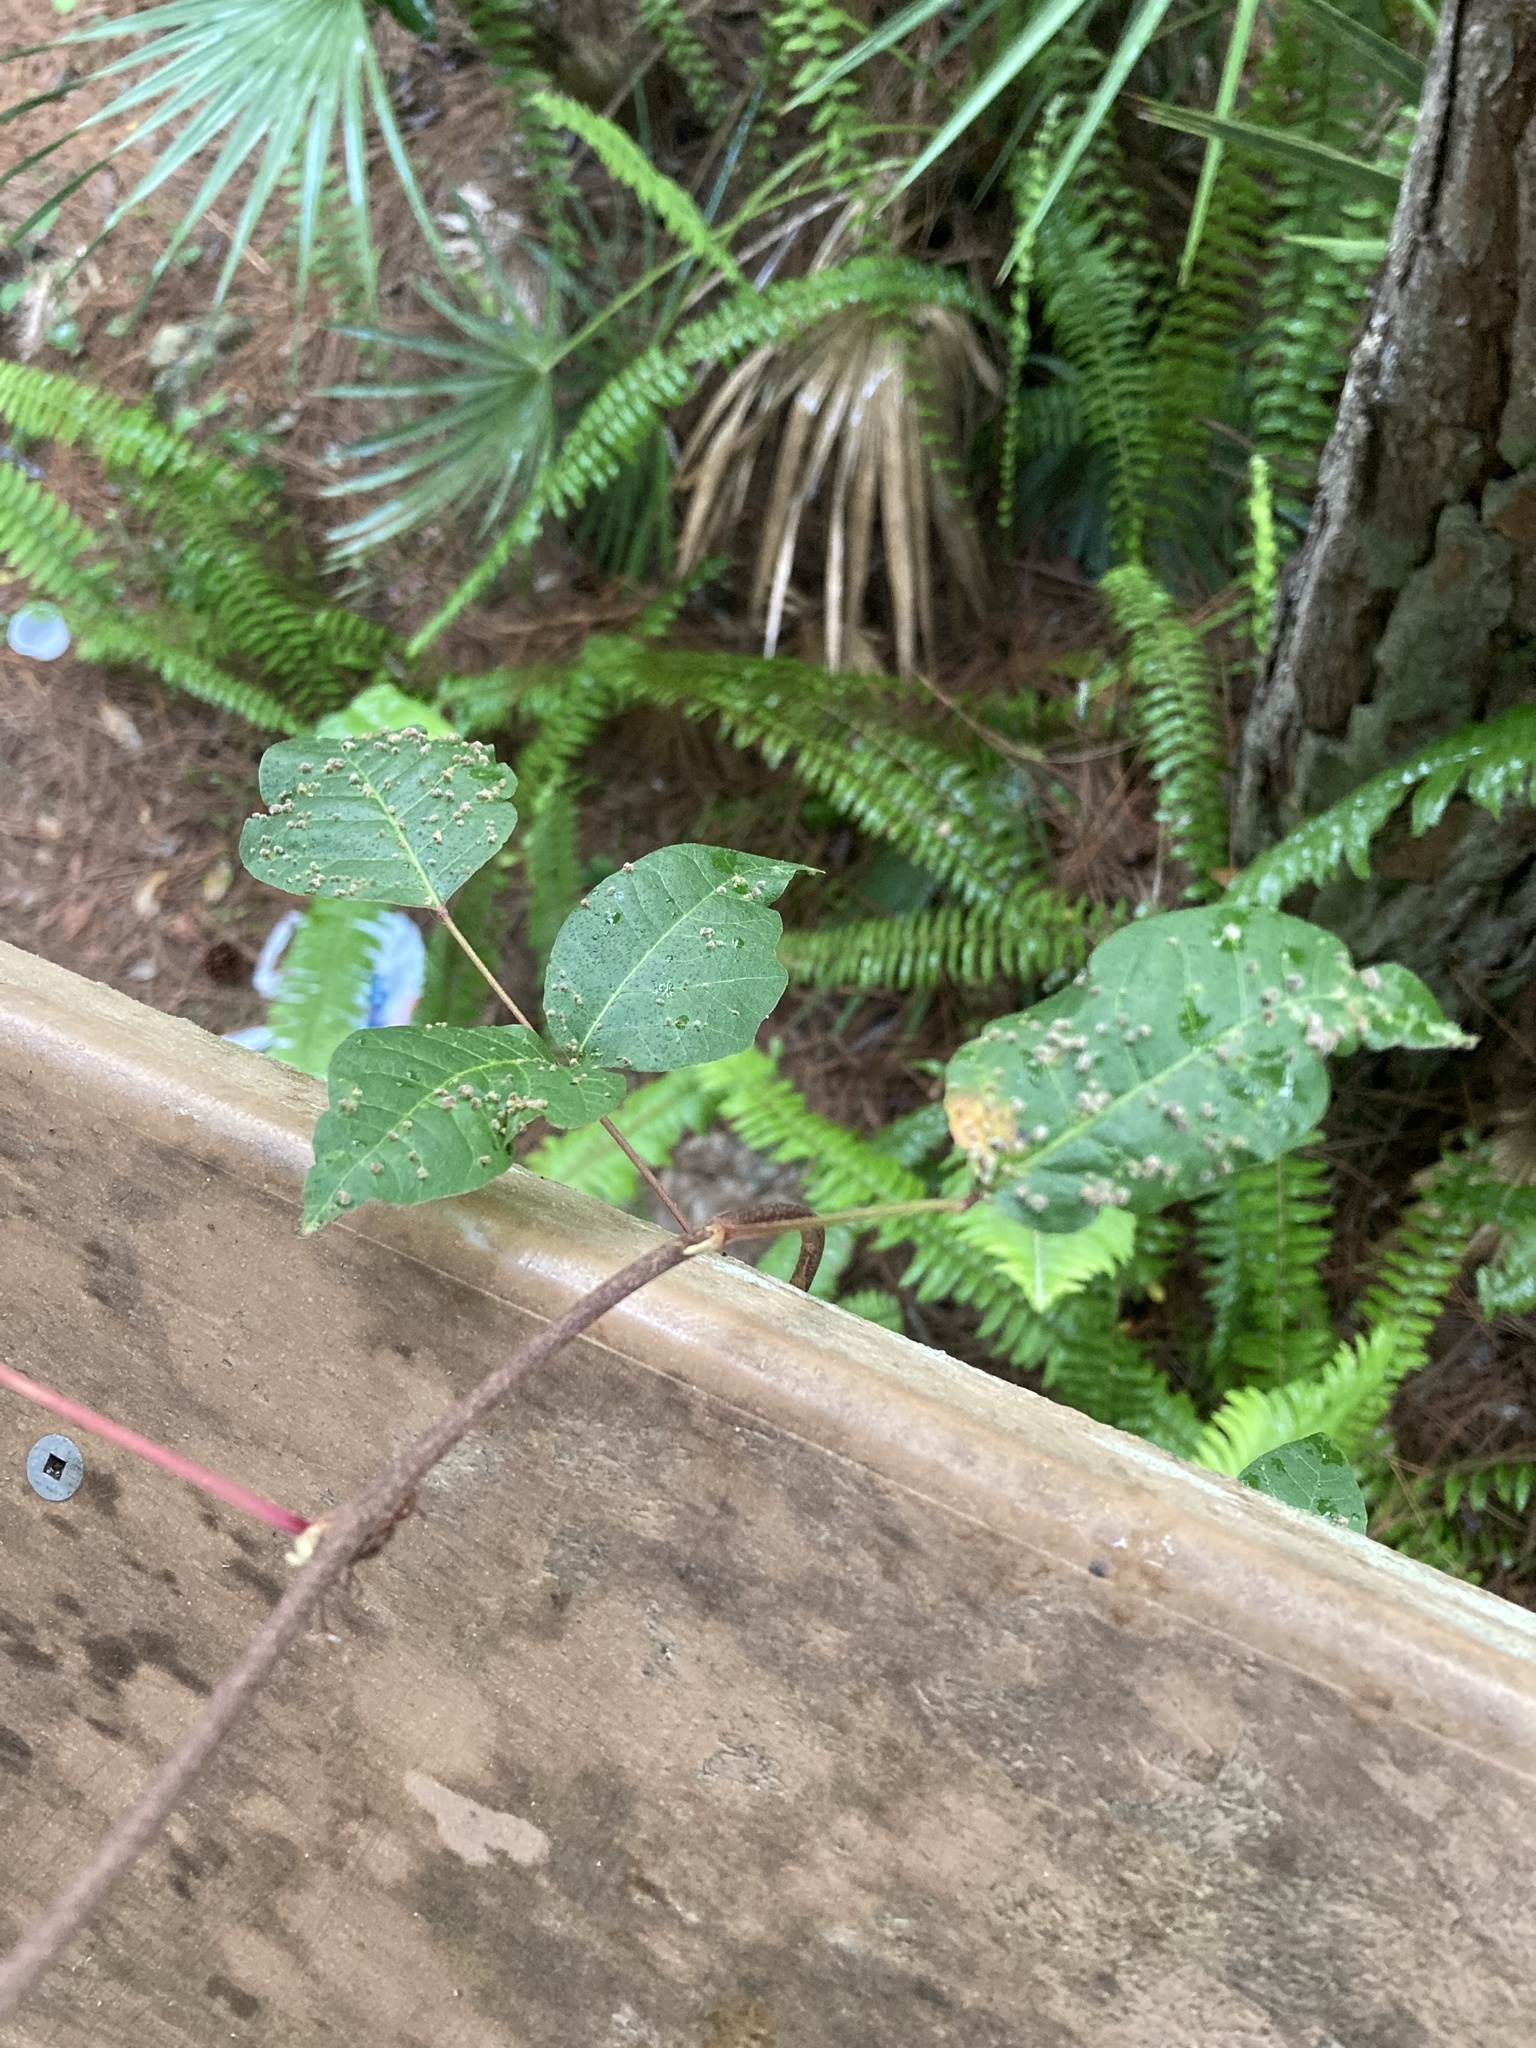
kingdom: Animalia
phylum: Arthropoda
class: Arachnida
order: Trombidiformes
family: Eriophyidae
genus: Aculops
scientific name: Aculops
